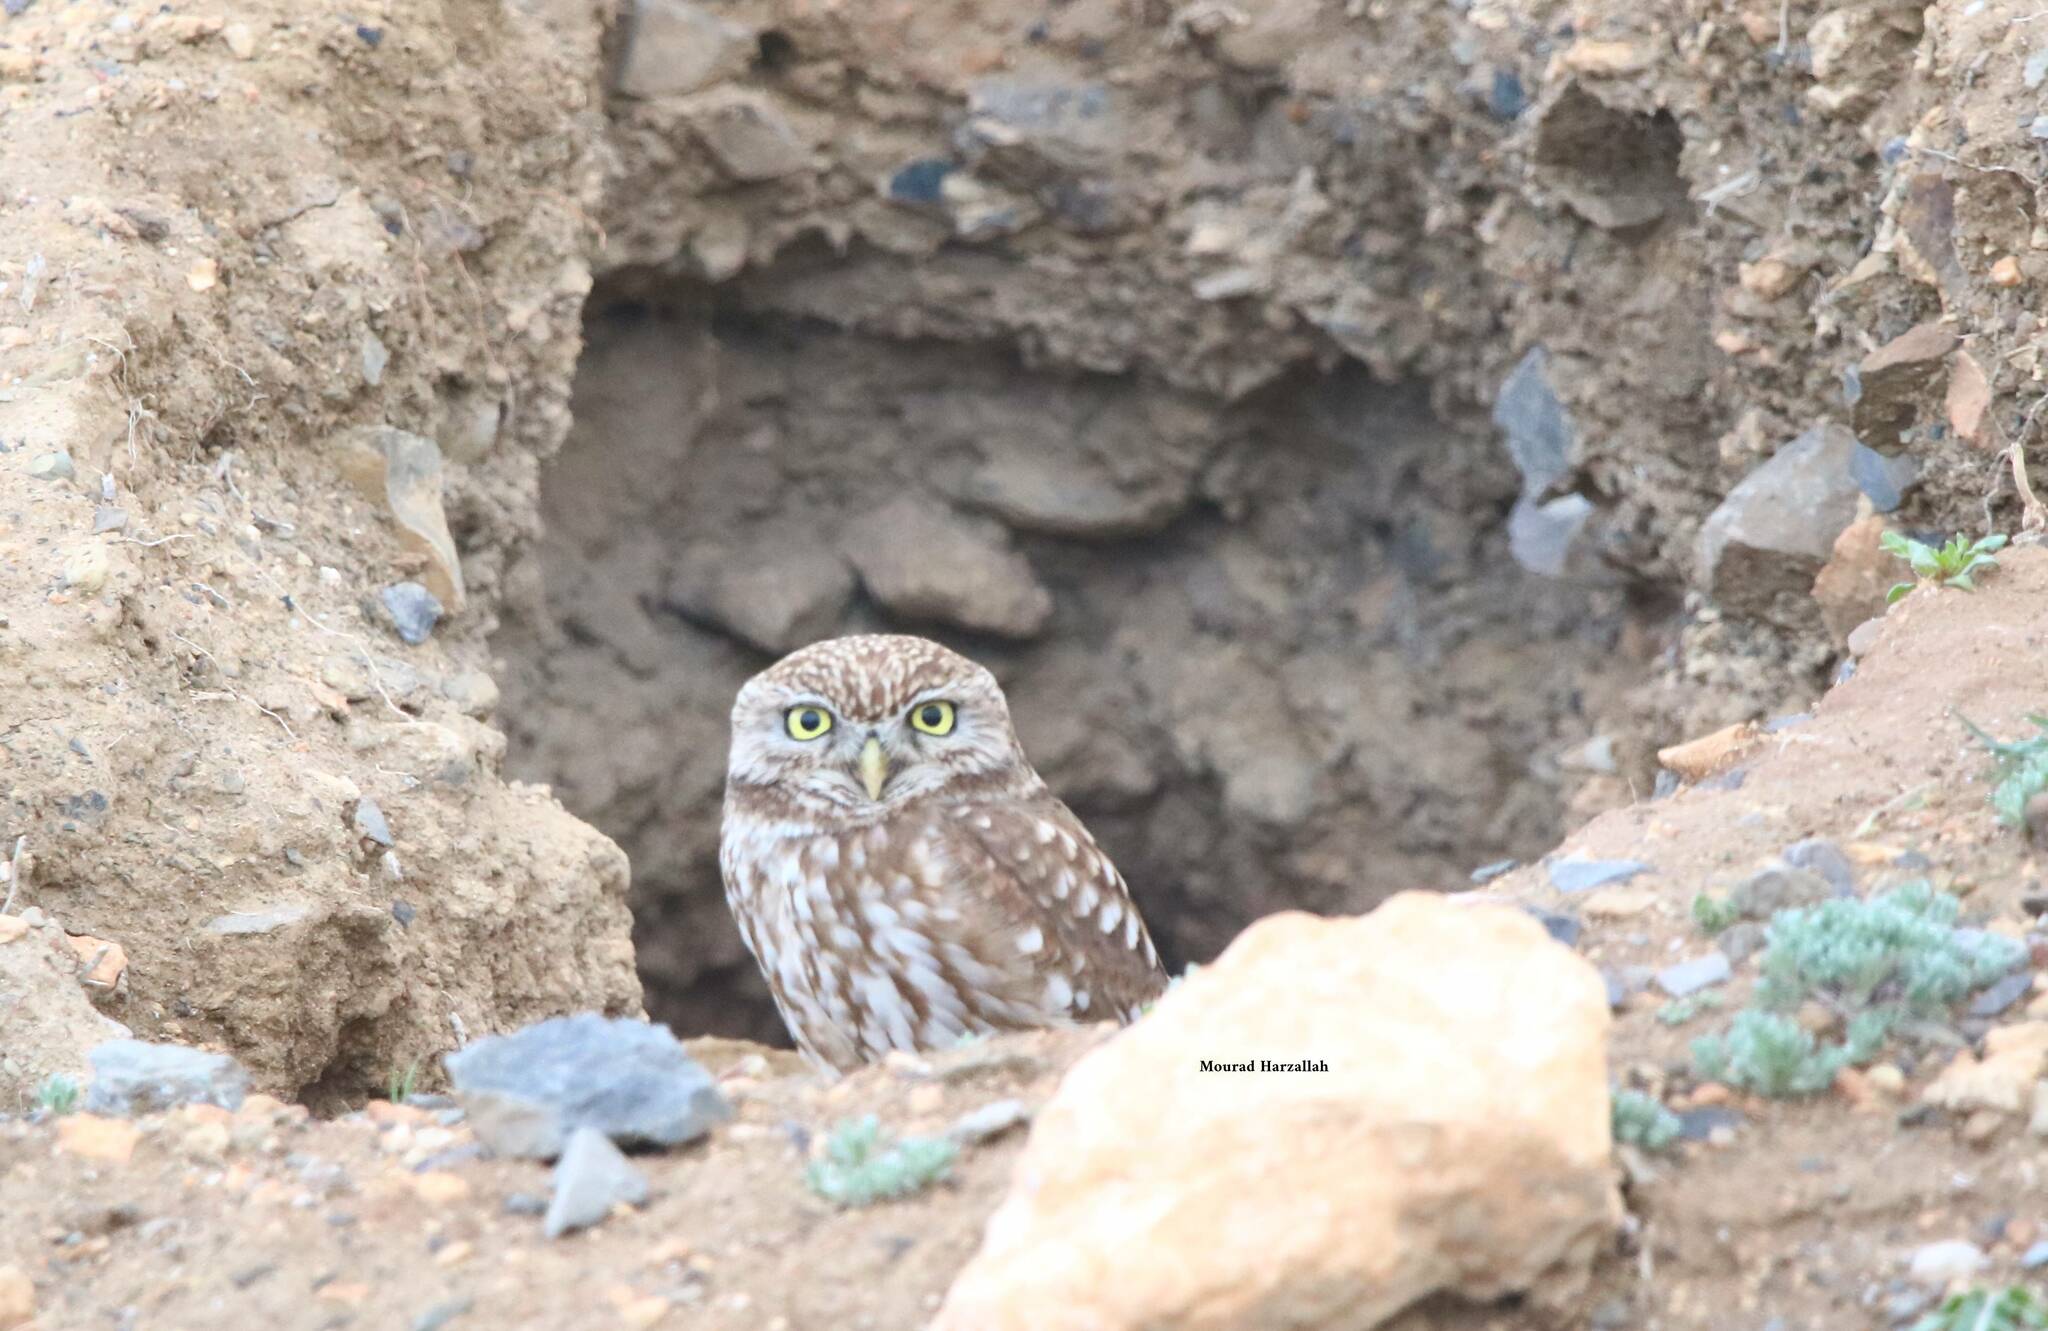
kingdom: Animalia
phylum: Chordata
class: Aves
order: Strigiformes
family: Strigidae
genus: Athene
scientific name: Athene noctua
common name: Little owl
